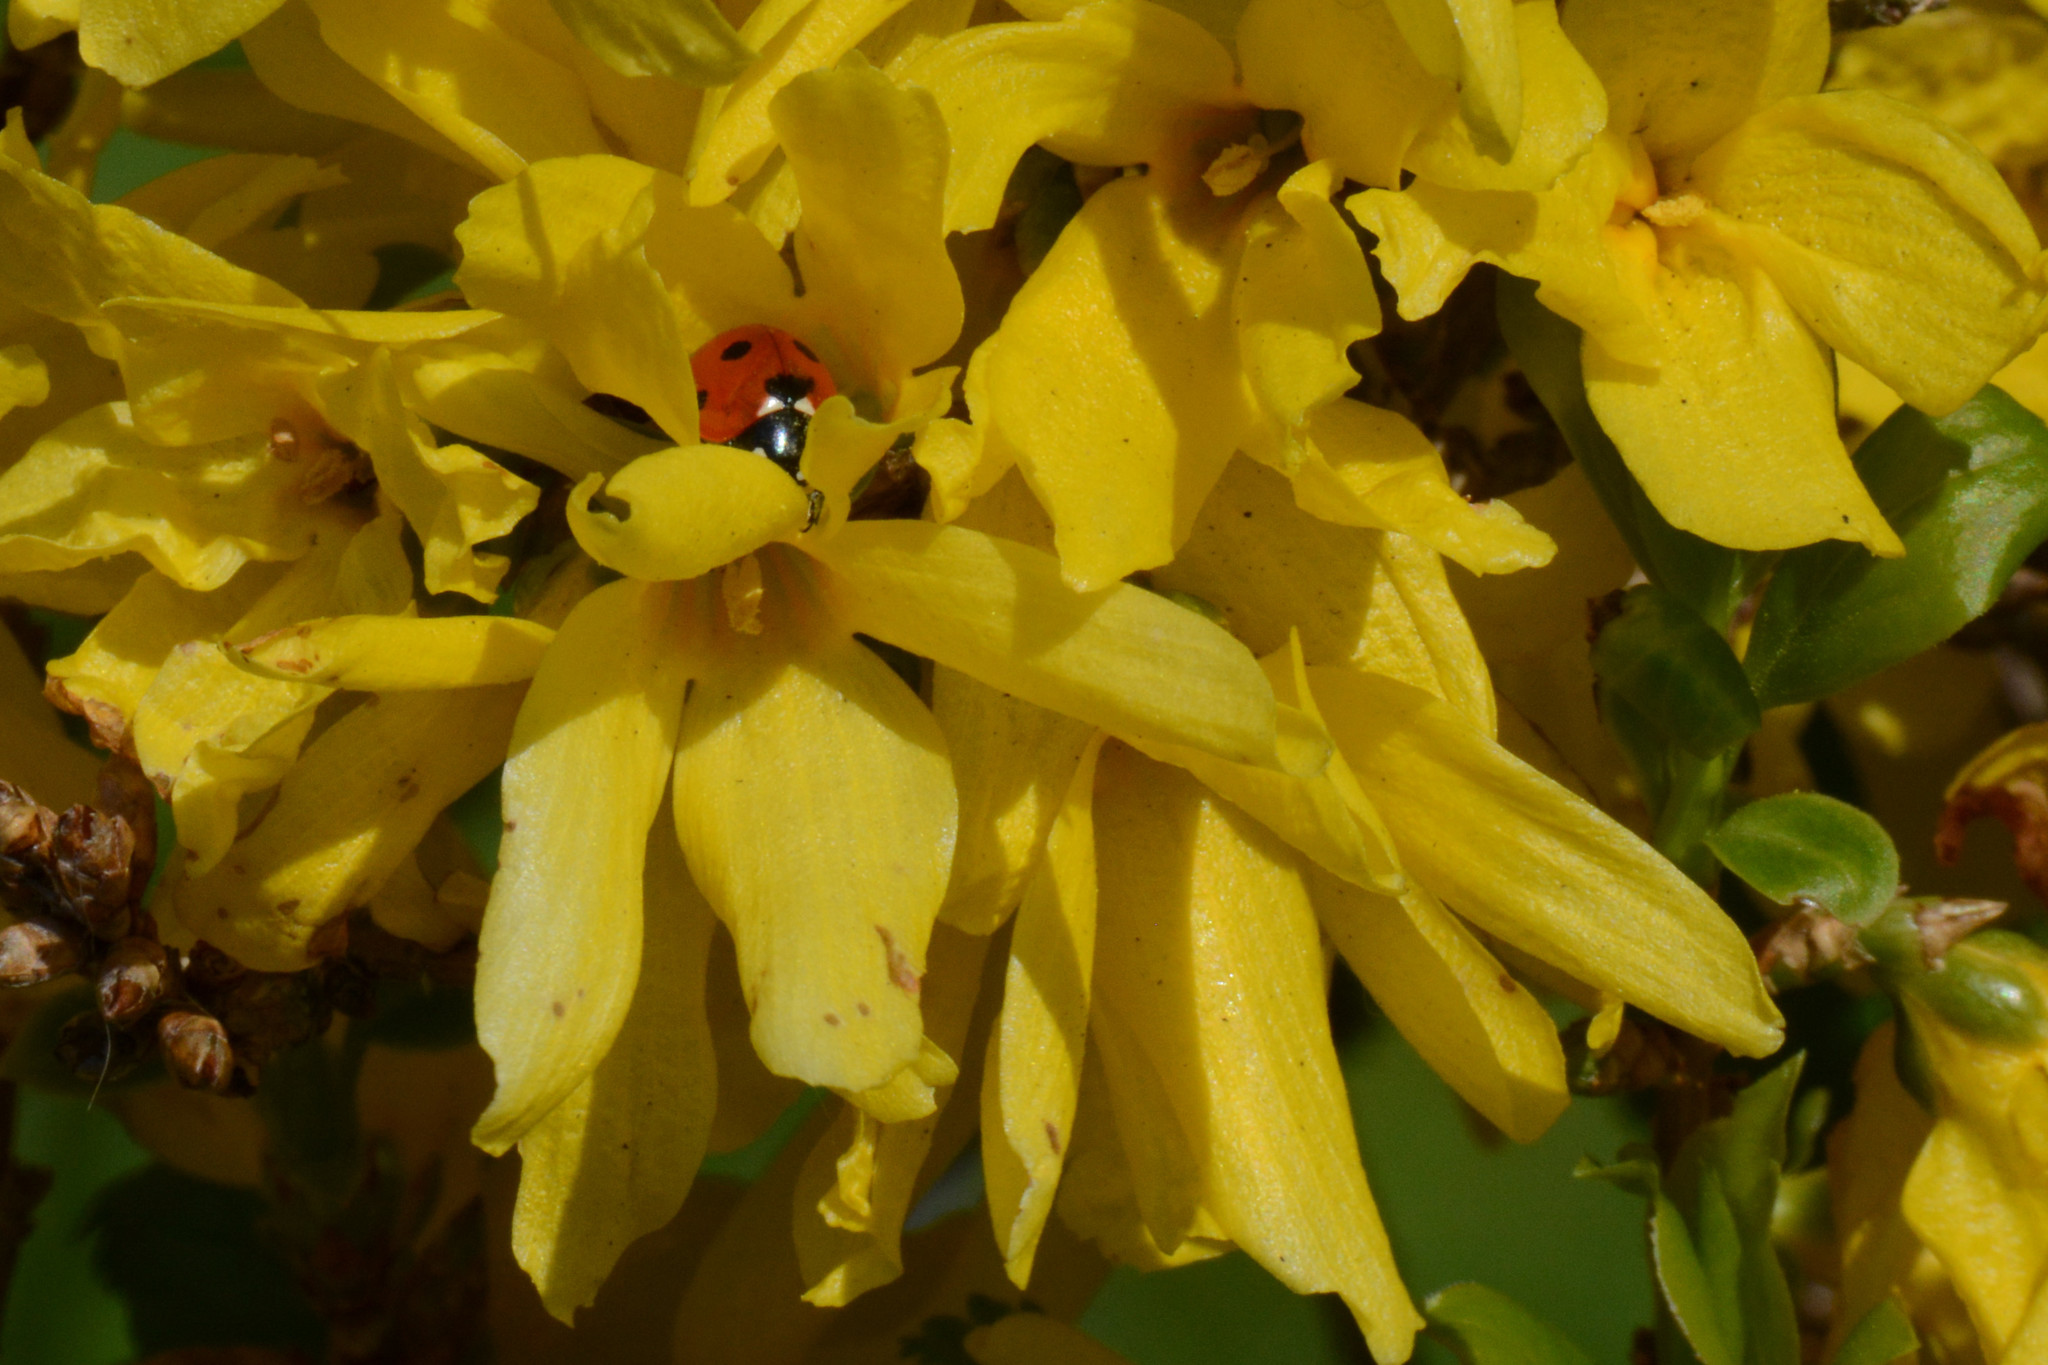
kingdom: Animalia
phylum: Arthropoda
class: Insecta
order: Coleoptera
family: Coccinellidae
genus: Coccinella
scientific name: Coccinella septempunctata
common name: Sevenspotted lady beetle
